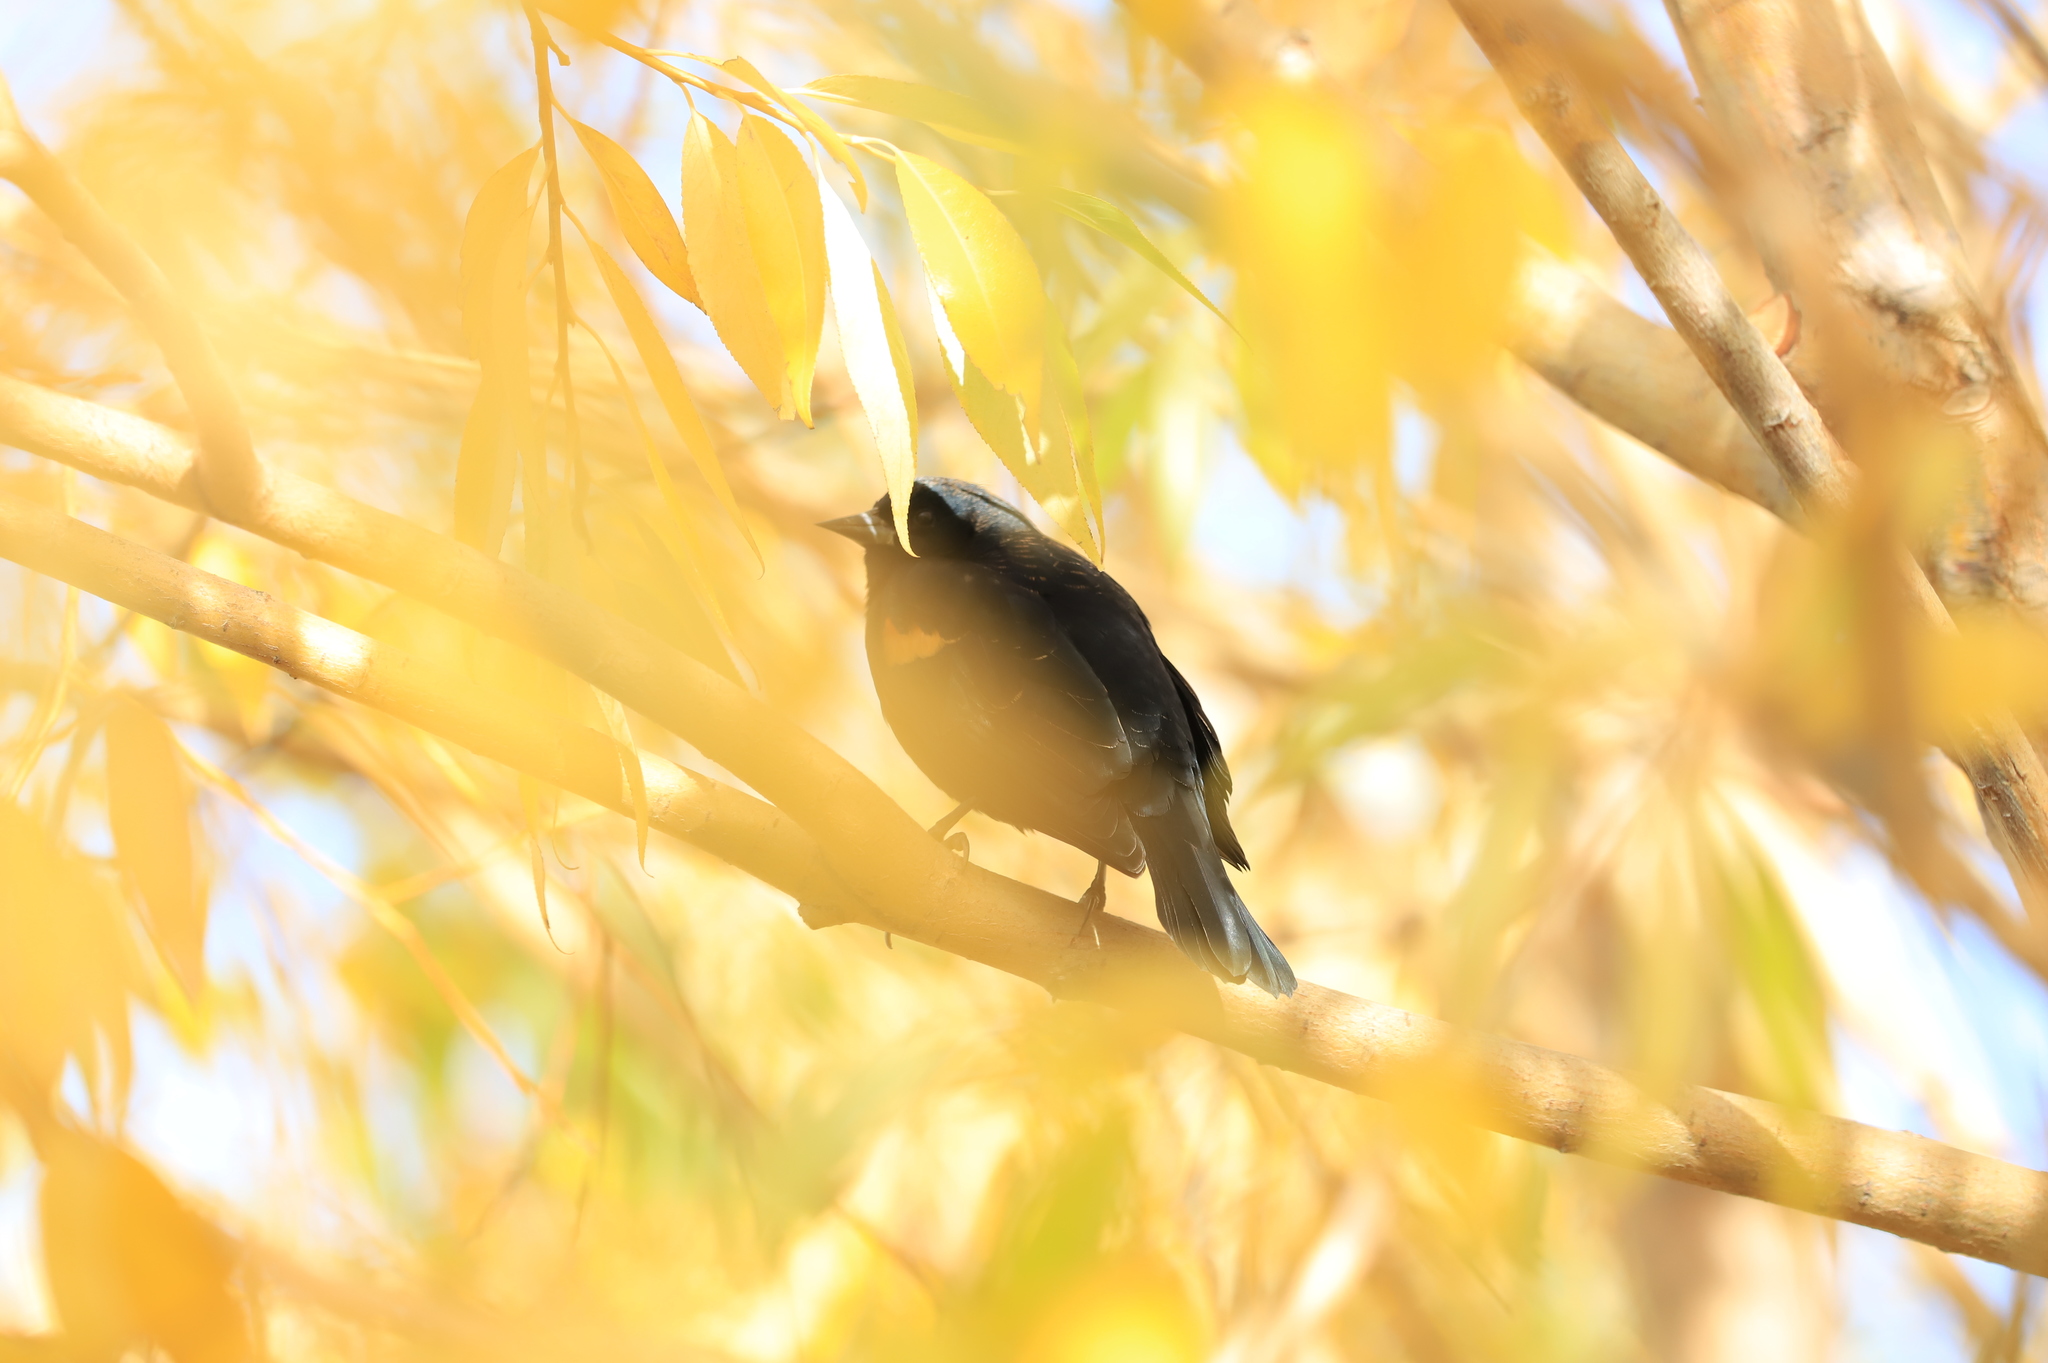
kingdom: Animalia
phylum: Chordata
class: Aves
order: Passeriformes
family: Icteridae
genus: Agelaius
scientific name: Agelaius phoeniceus
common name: Red-winged blackbird
